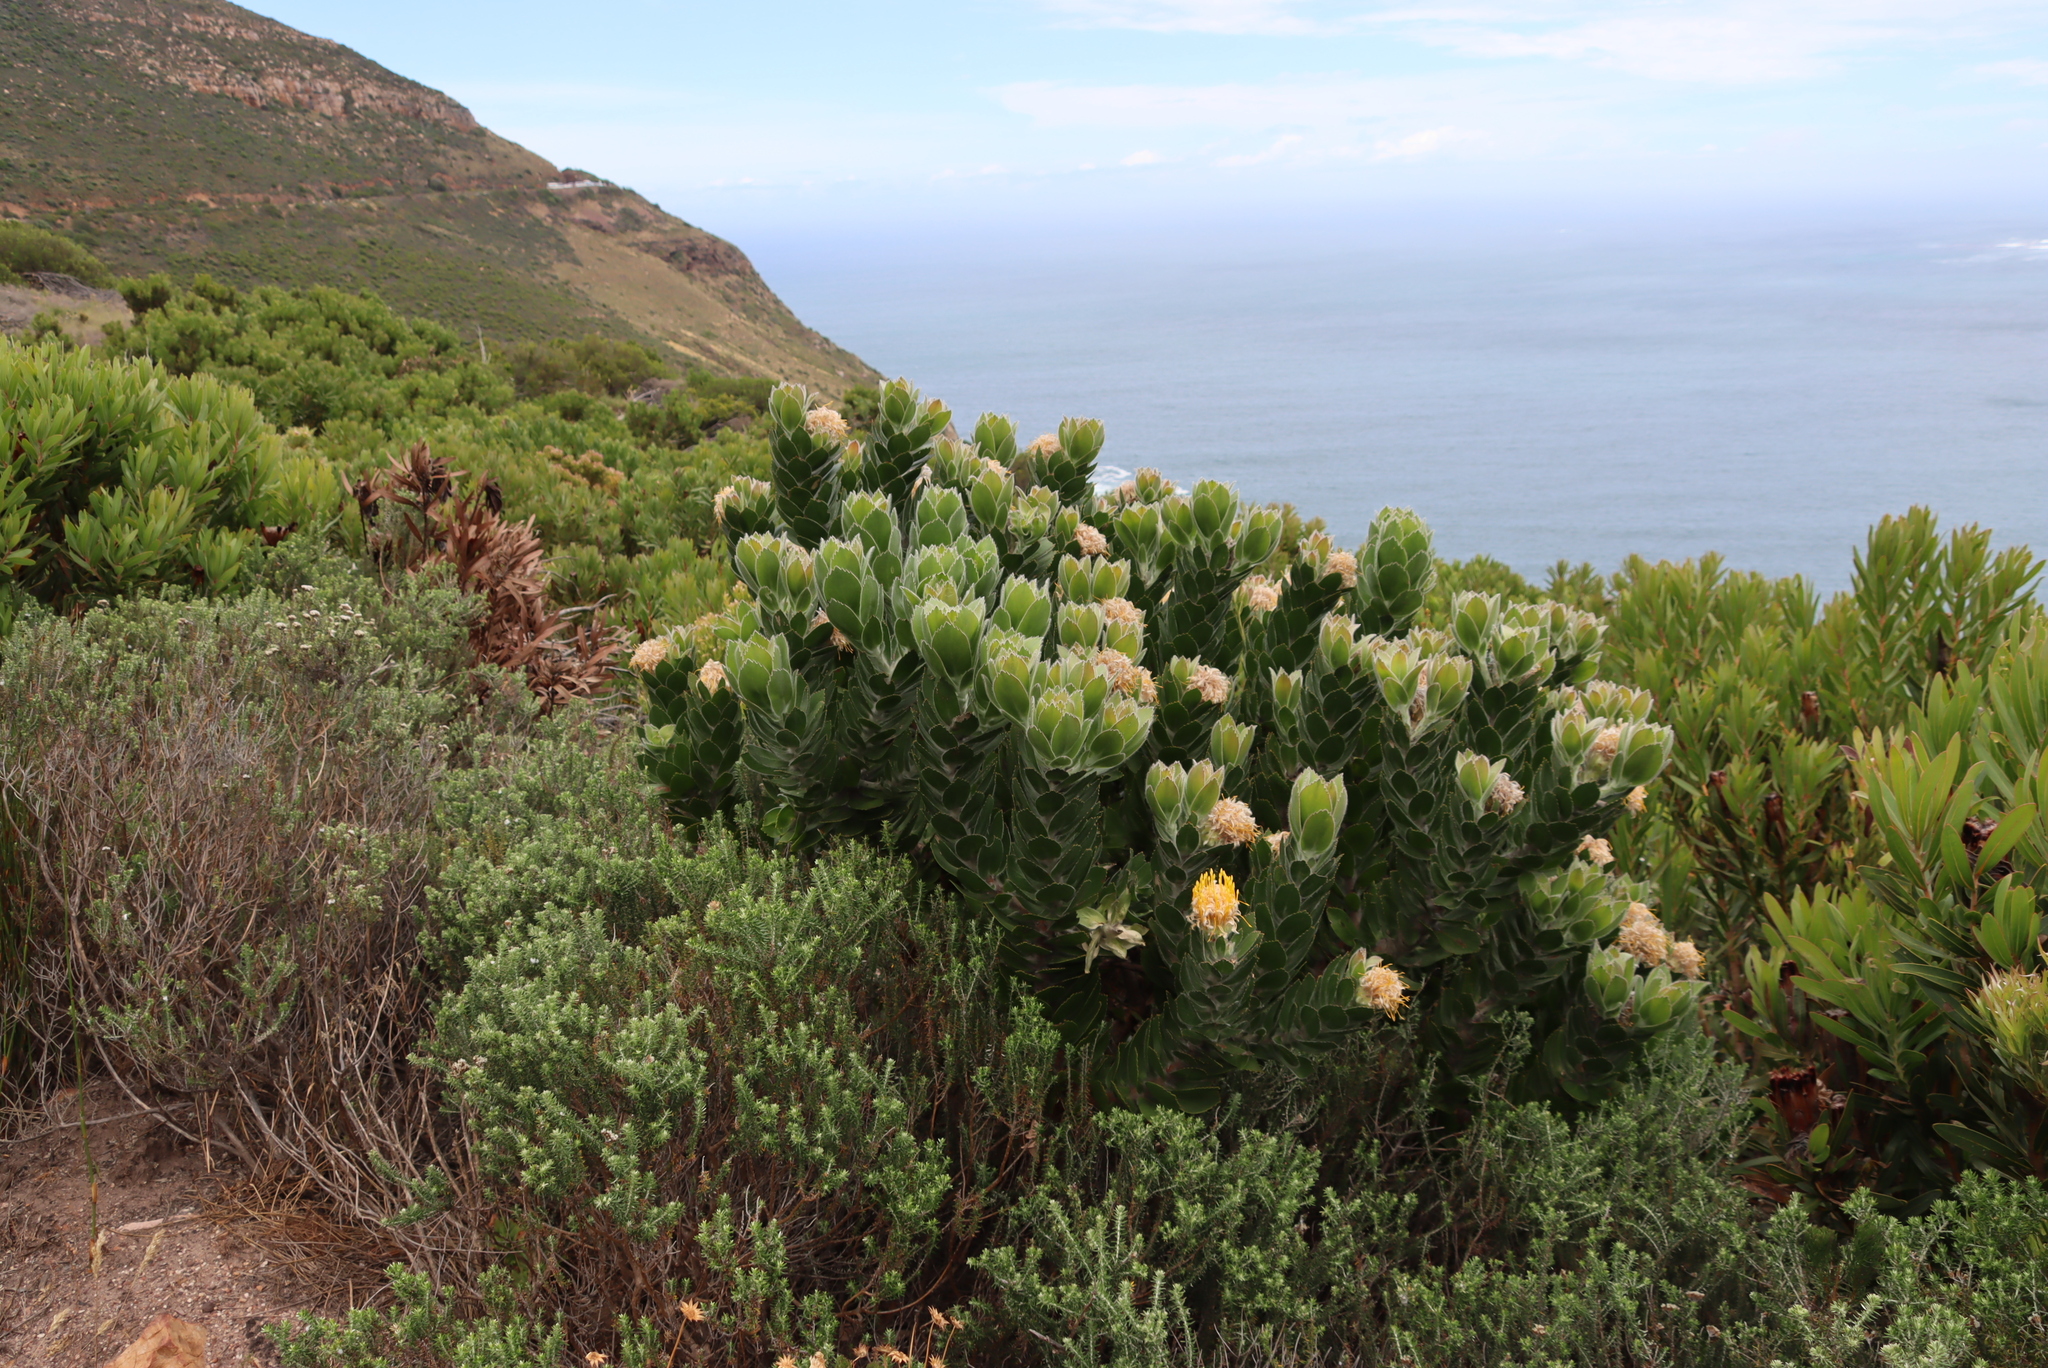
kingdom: Plantae
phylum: Tracheophyta
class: Magnoliopsida
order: Proteales
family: Proteaceae
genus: Leucospermum
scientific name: Leucospermum conocarpodendron
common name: Tree pincushion
